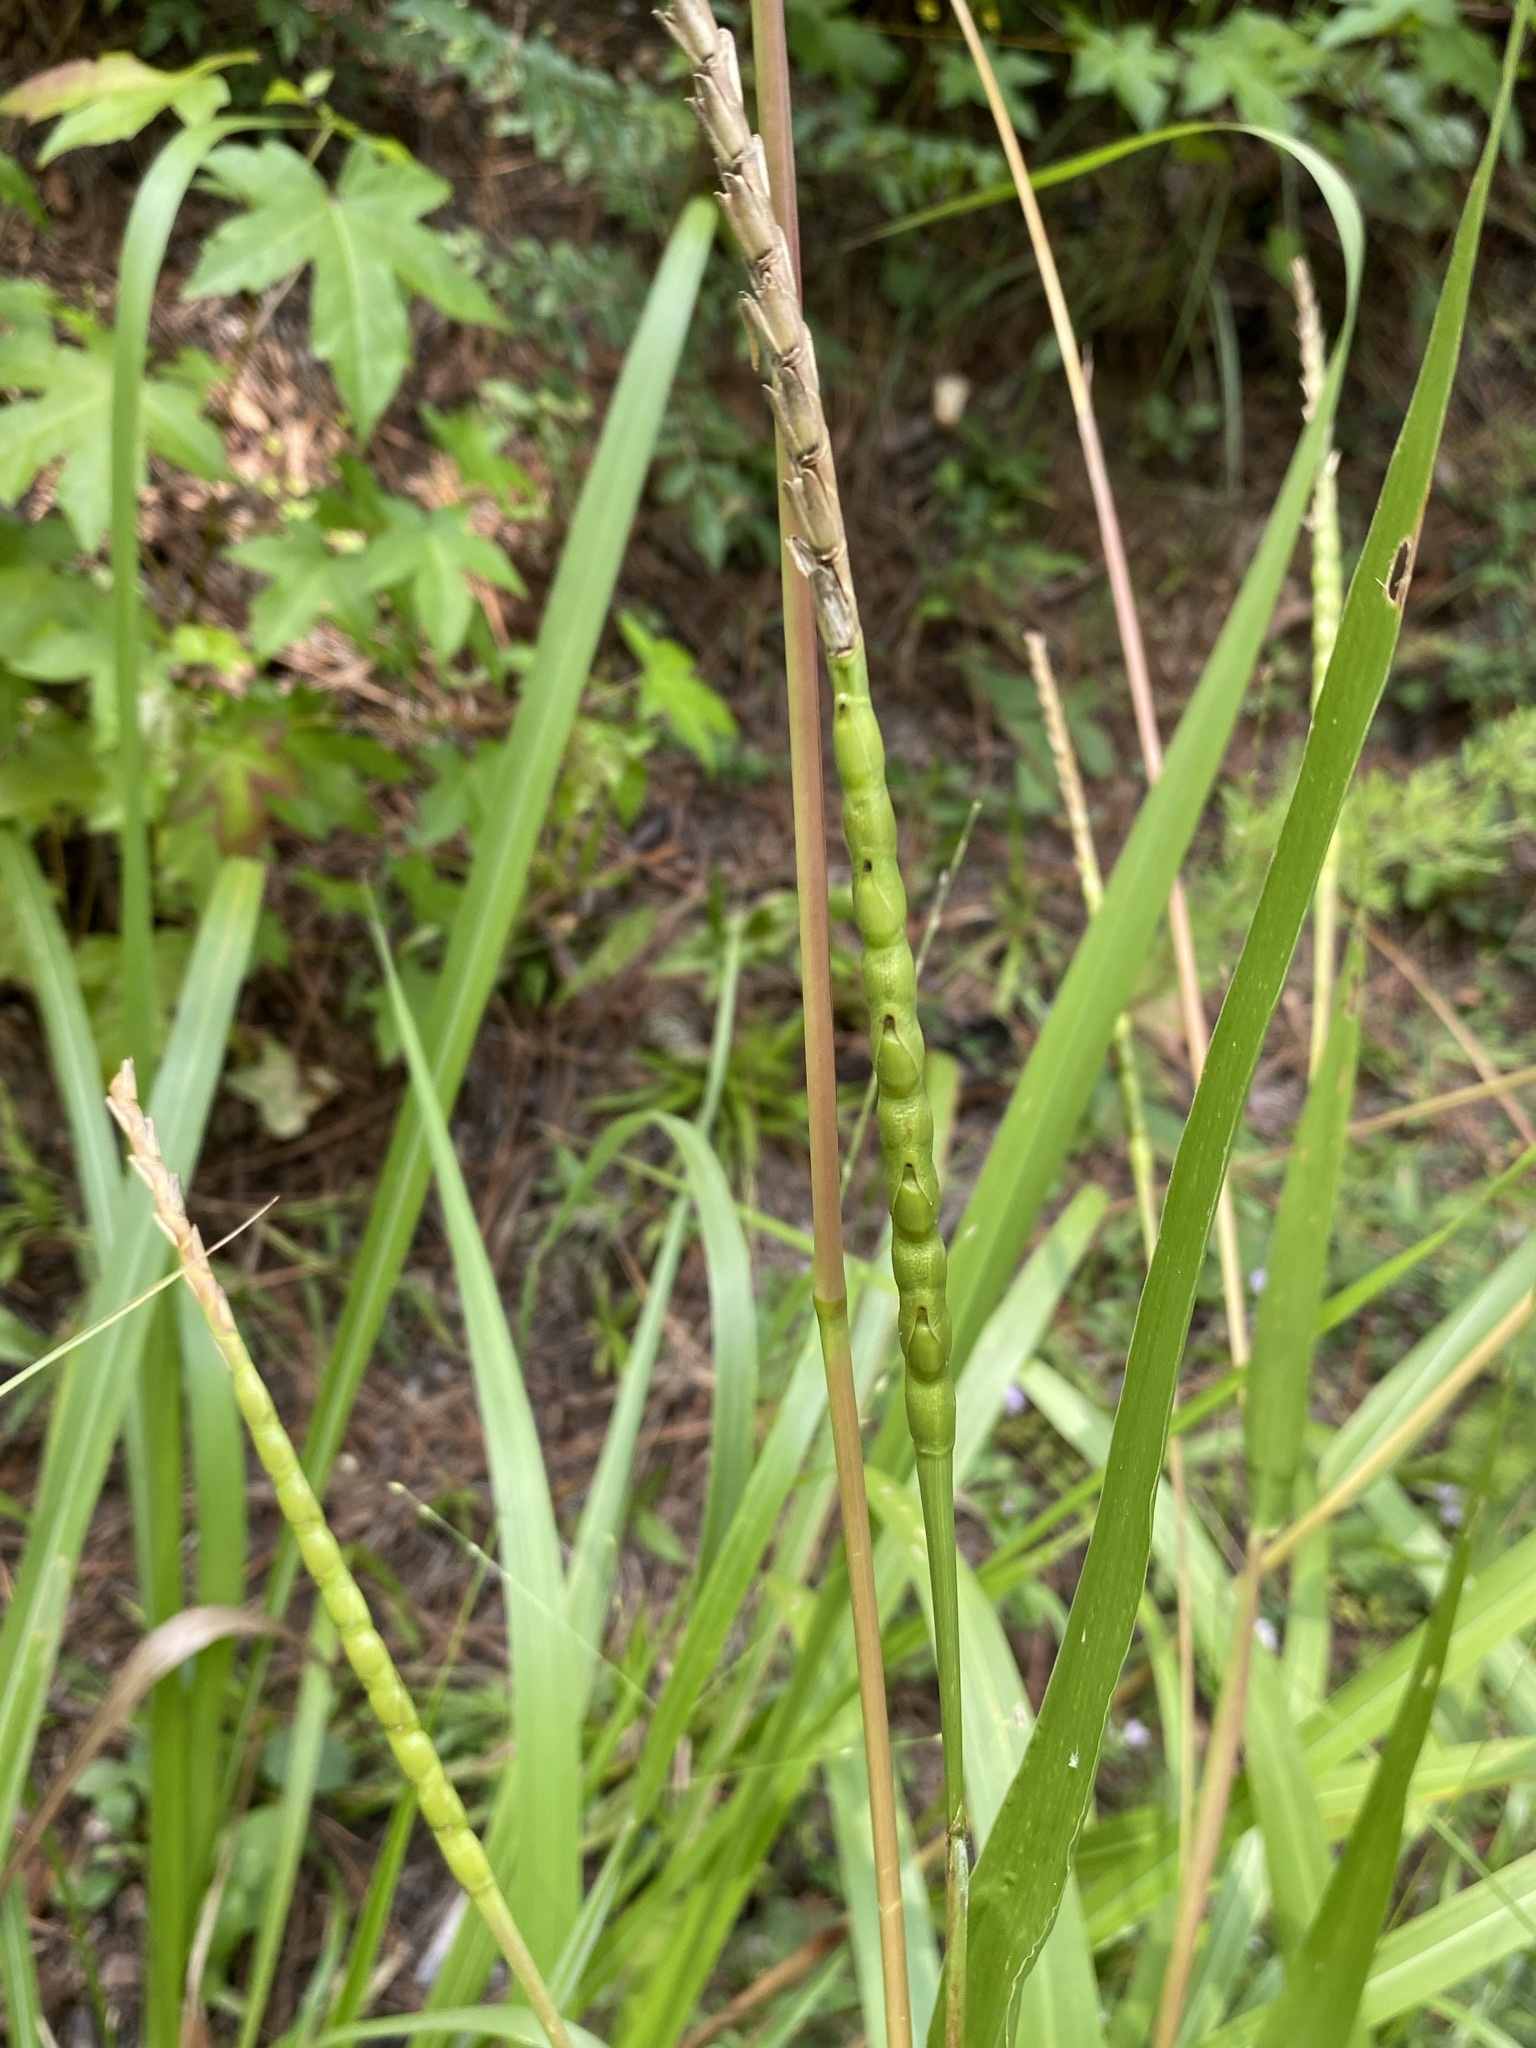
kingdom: Plantae
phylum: Tracheophyta
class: Liliopsida
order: Poales
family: Poaceae
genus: Tripsacum
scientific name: Tripsacum dactyloides
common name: Buffalo-grass
